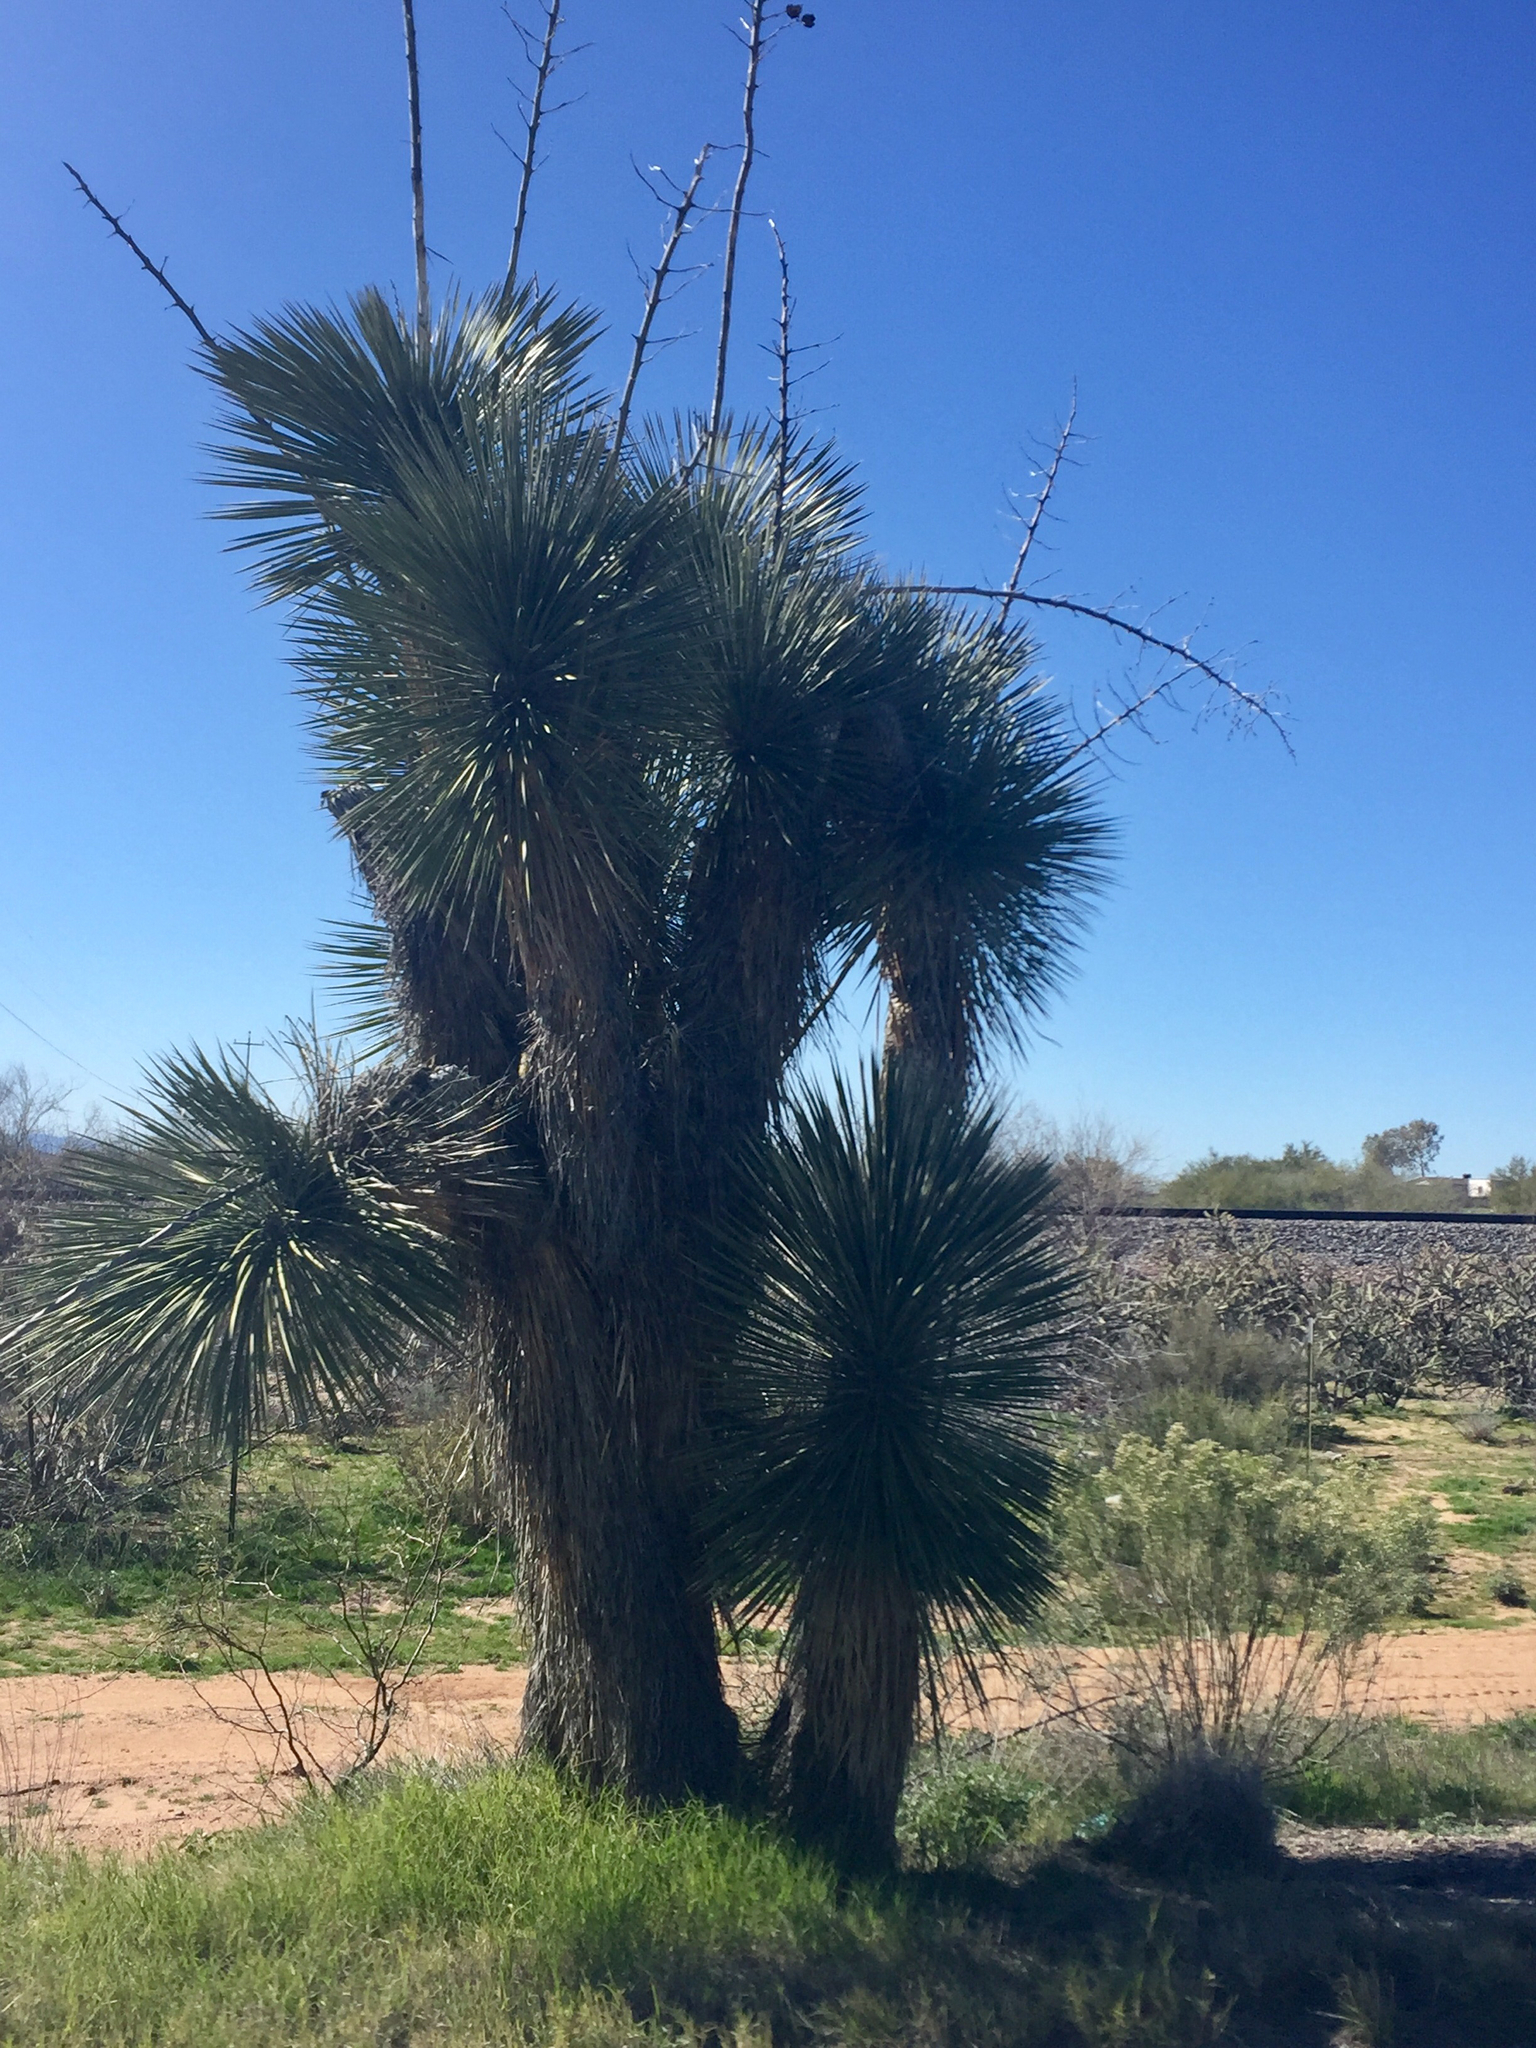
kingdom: Plantae
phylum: Tracheophyta
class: Liliopsida
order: Asparagales
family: Asparagaceae
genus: Yucca
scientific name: Yucca elata
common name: Palmella
